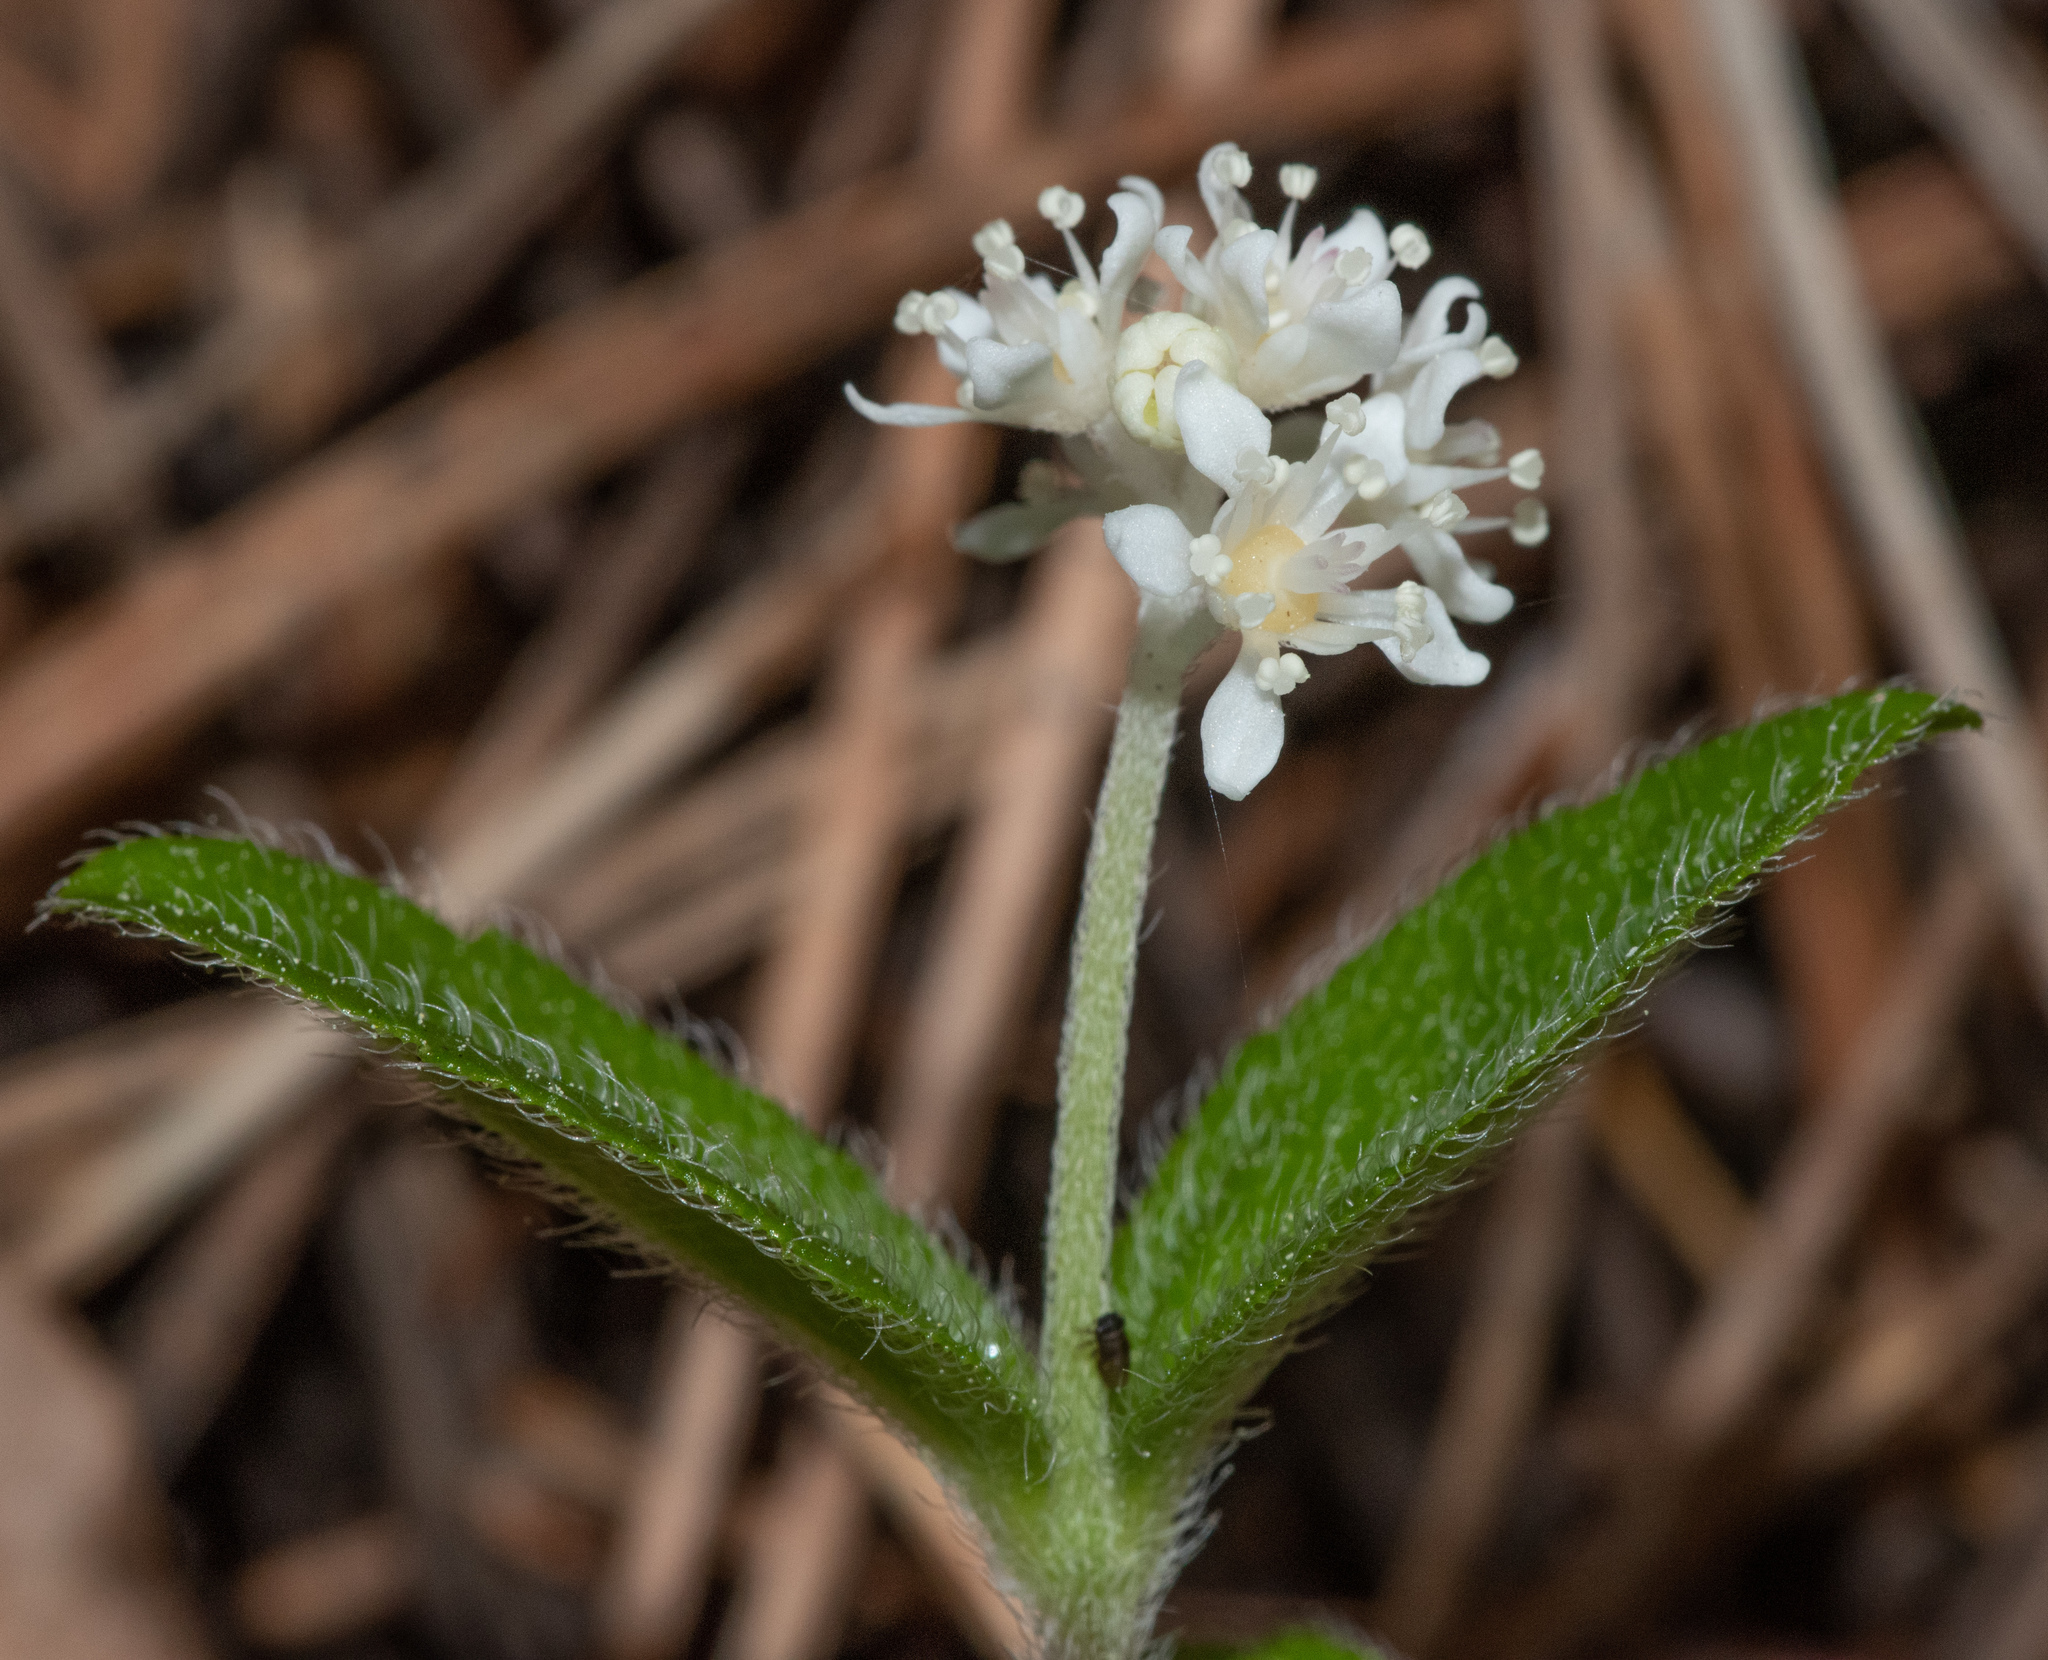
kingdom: Plantae
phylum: Tracheophyta
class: Magnoliopsida
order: Cornales
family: Hydrangeaceae
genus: Whipplea
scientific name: Whipplea modesta
